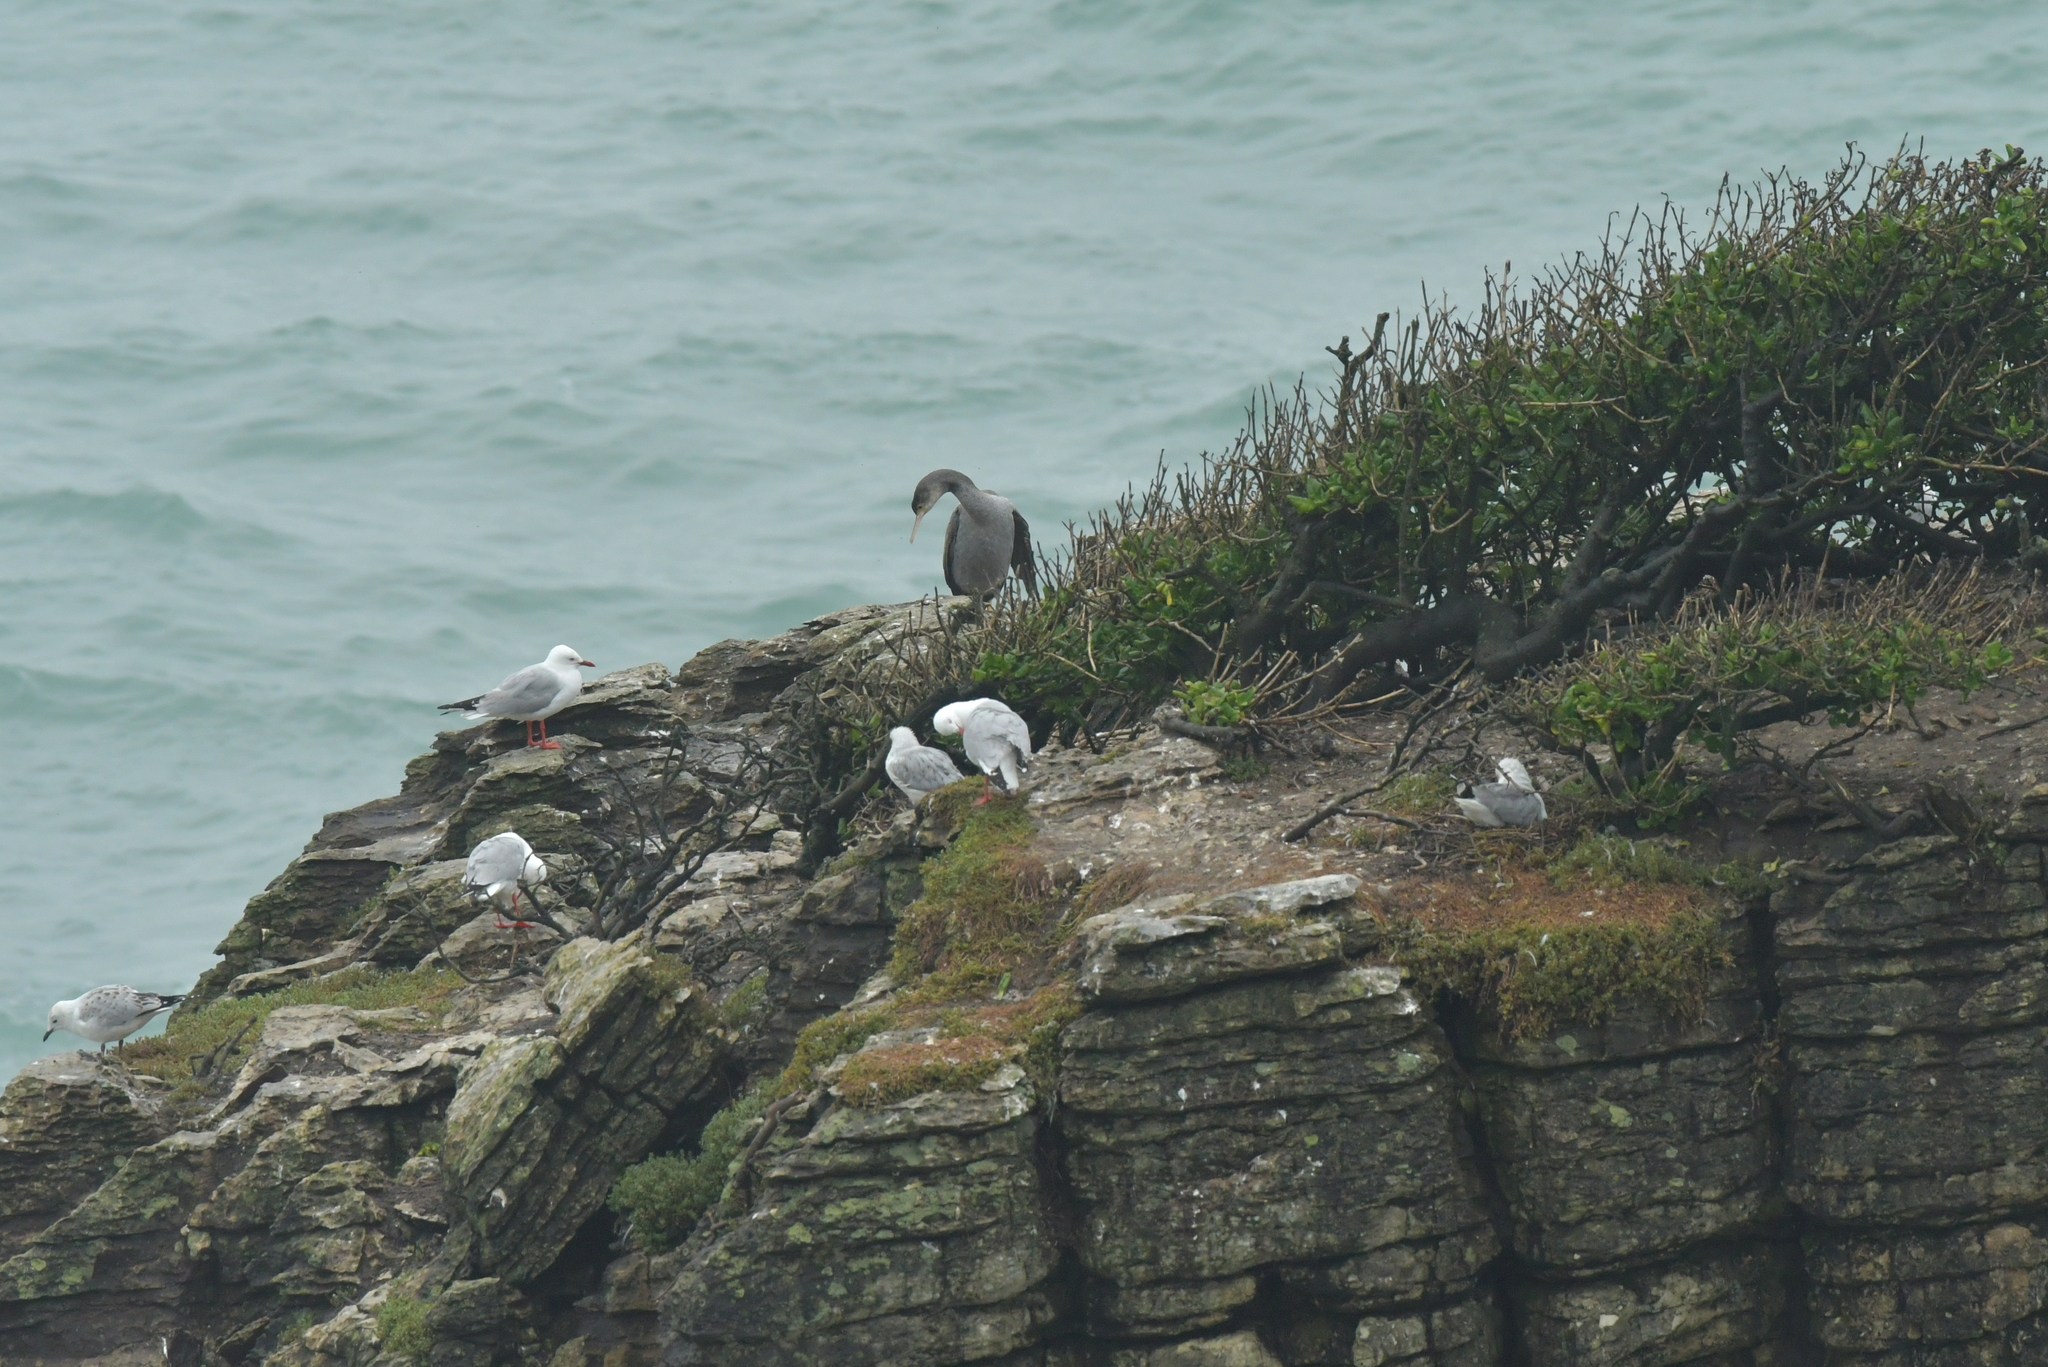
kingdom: Animalia
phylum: Chordata
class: Aves
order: Suliformes
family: Phalacrocoracidae
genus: Phalacrocorax
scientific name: Phalacrocorax punctatus
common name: Spotted shag
